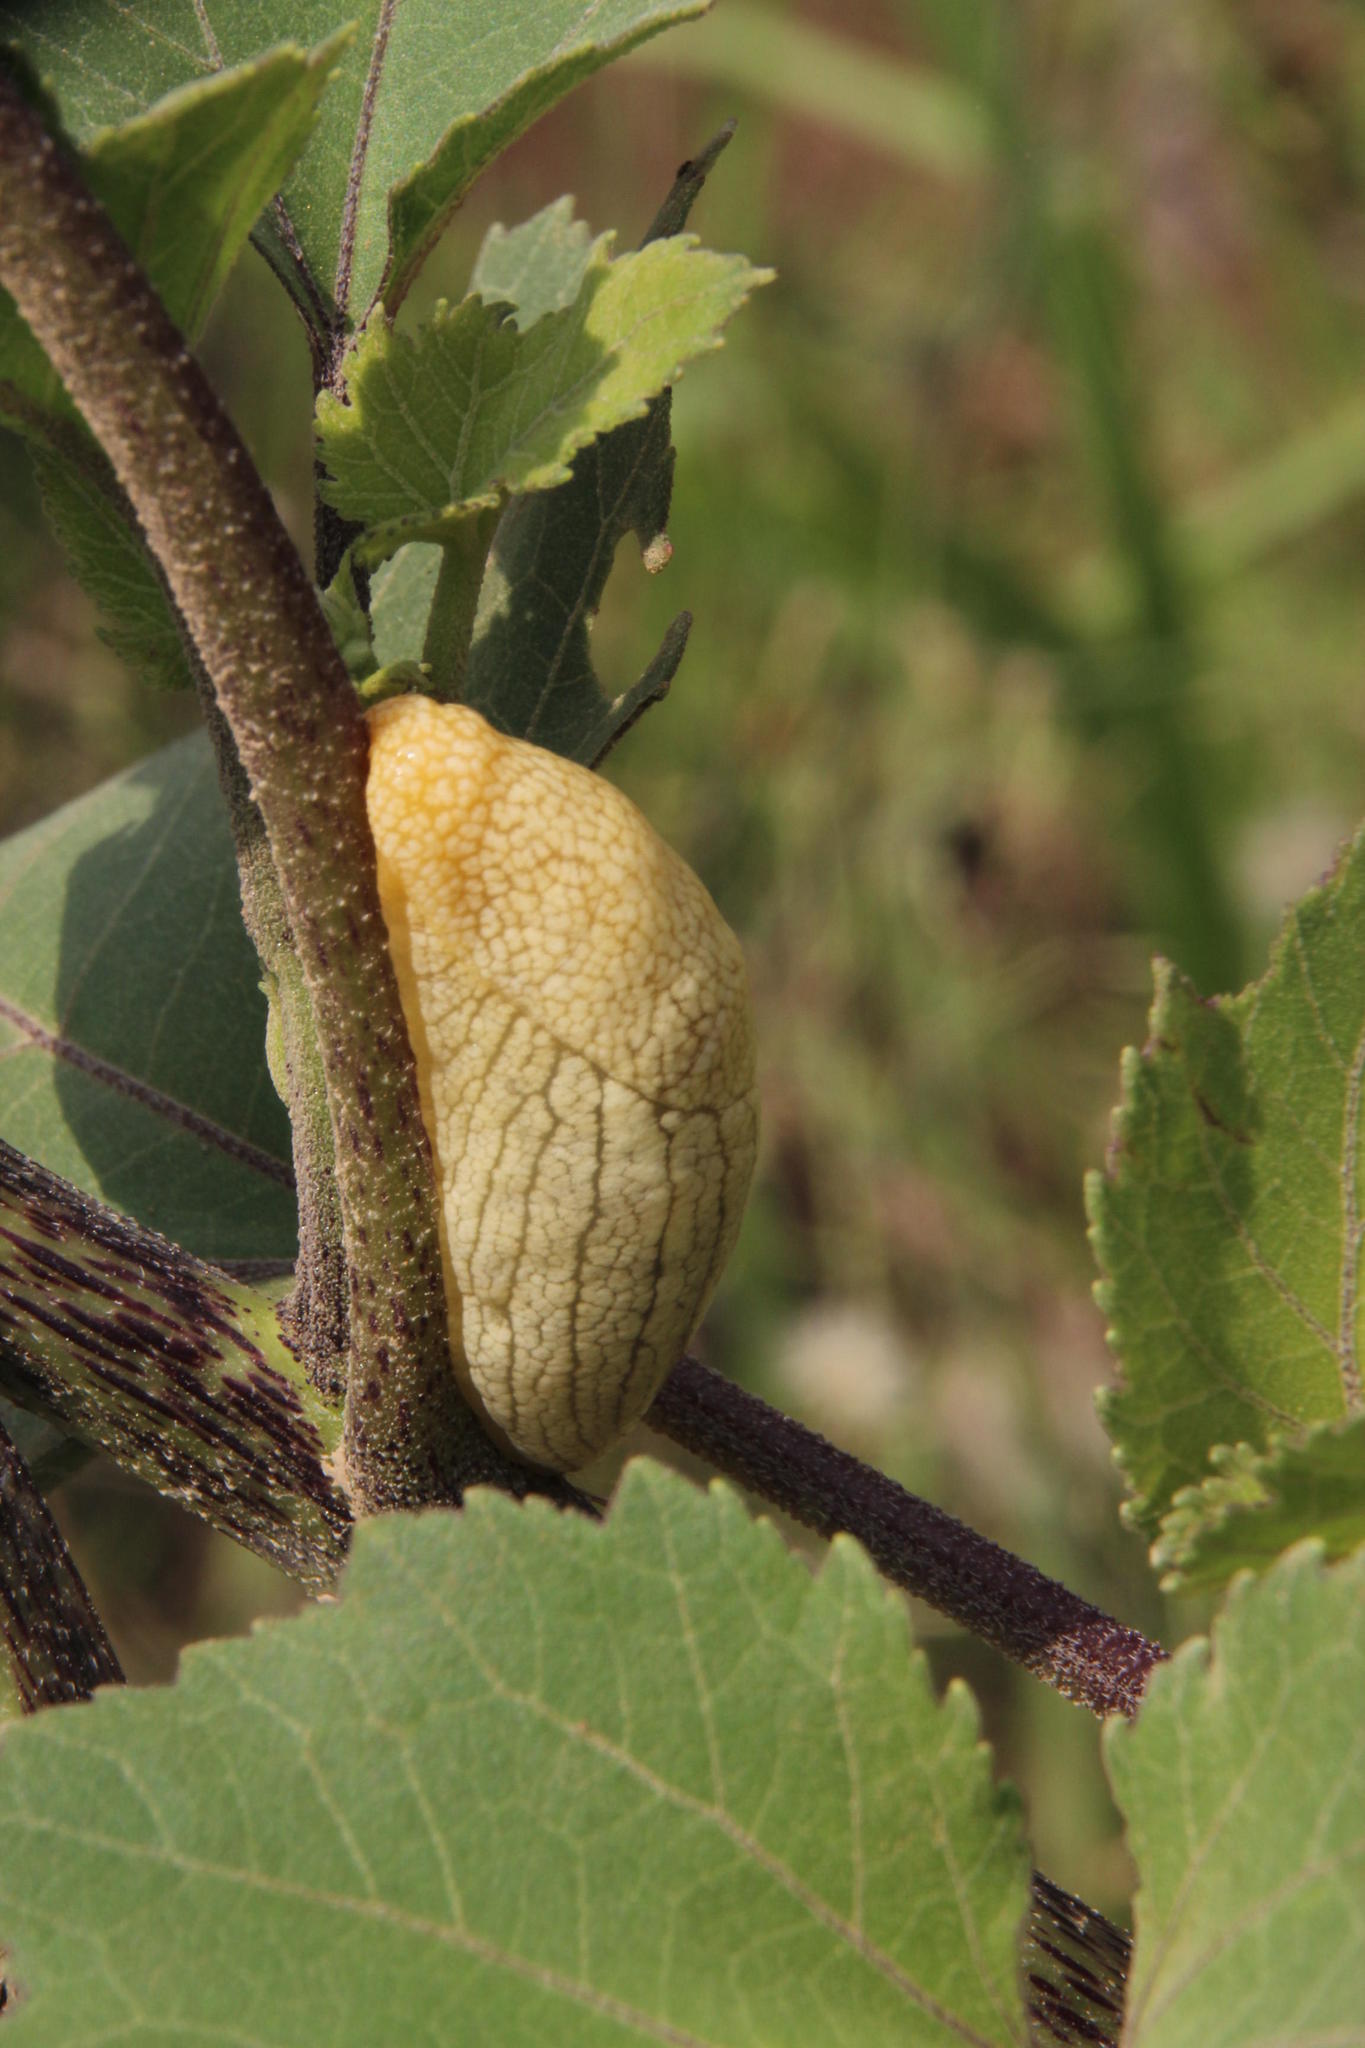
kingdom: Animalia
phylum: Mollusca
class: Gastropoda
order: Stylommatophora
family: Urocyclidae
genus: Elisolimax
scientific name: Elisolimax flavescens
